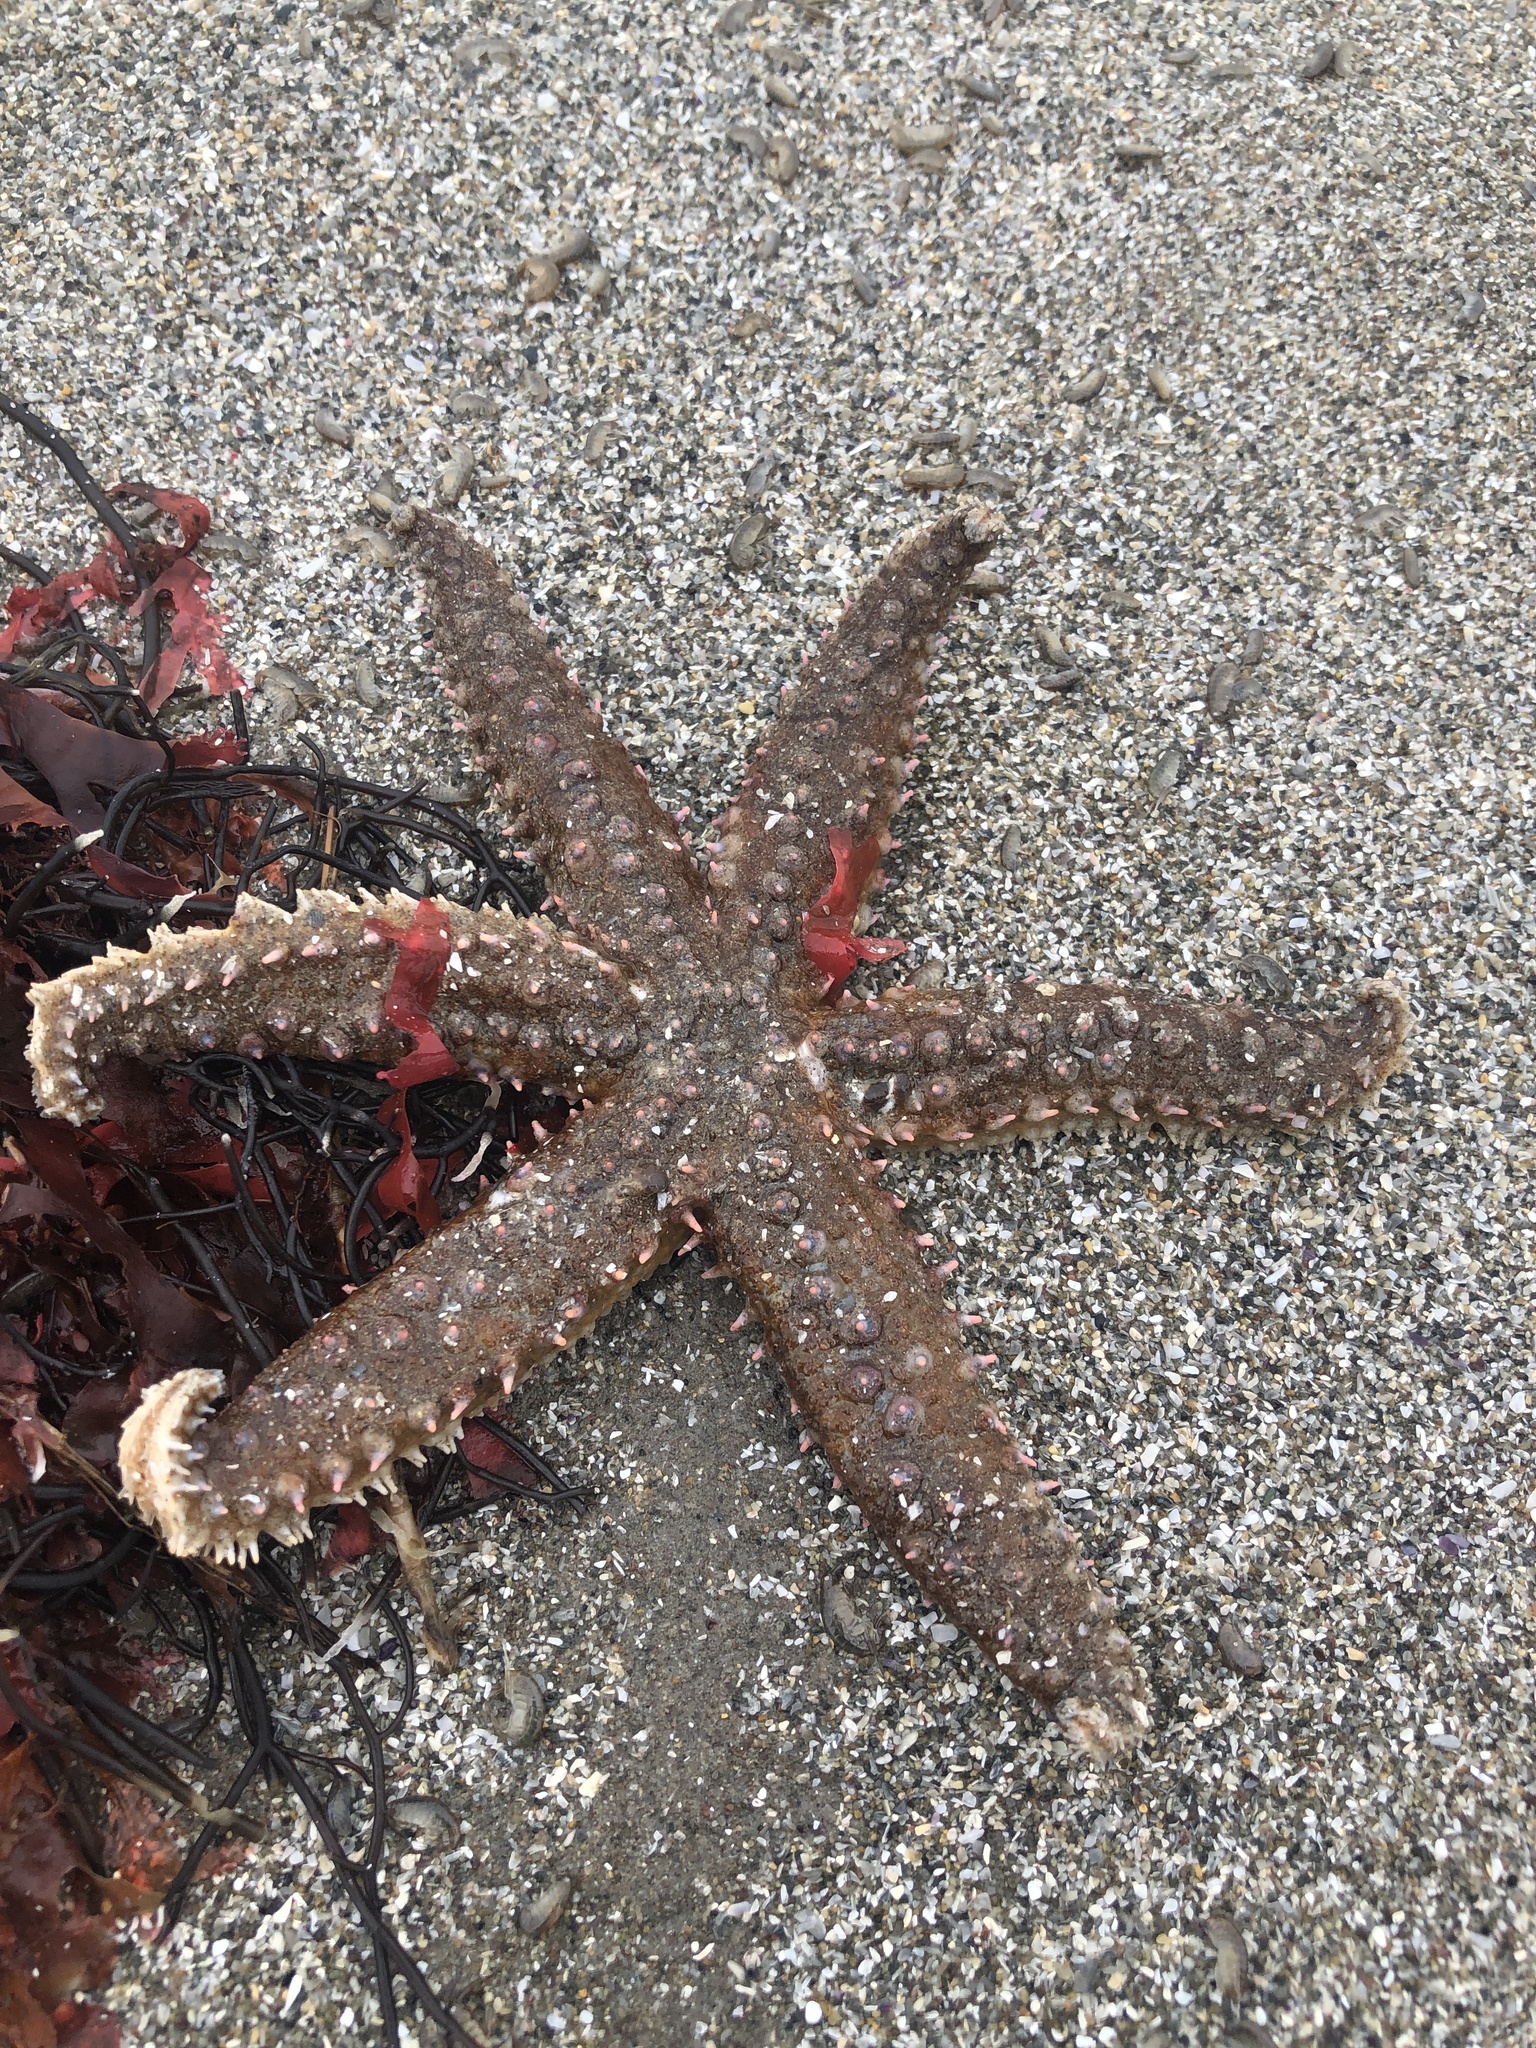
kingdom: Animalia
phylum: Echinodermata
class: Asteroidea
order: Forcipulatida
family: Asteriidae
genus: Meyenaster
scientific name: Meyenaster gelatinosus
